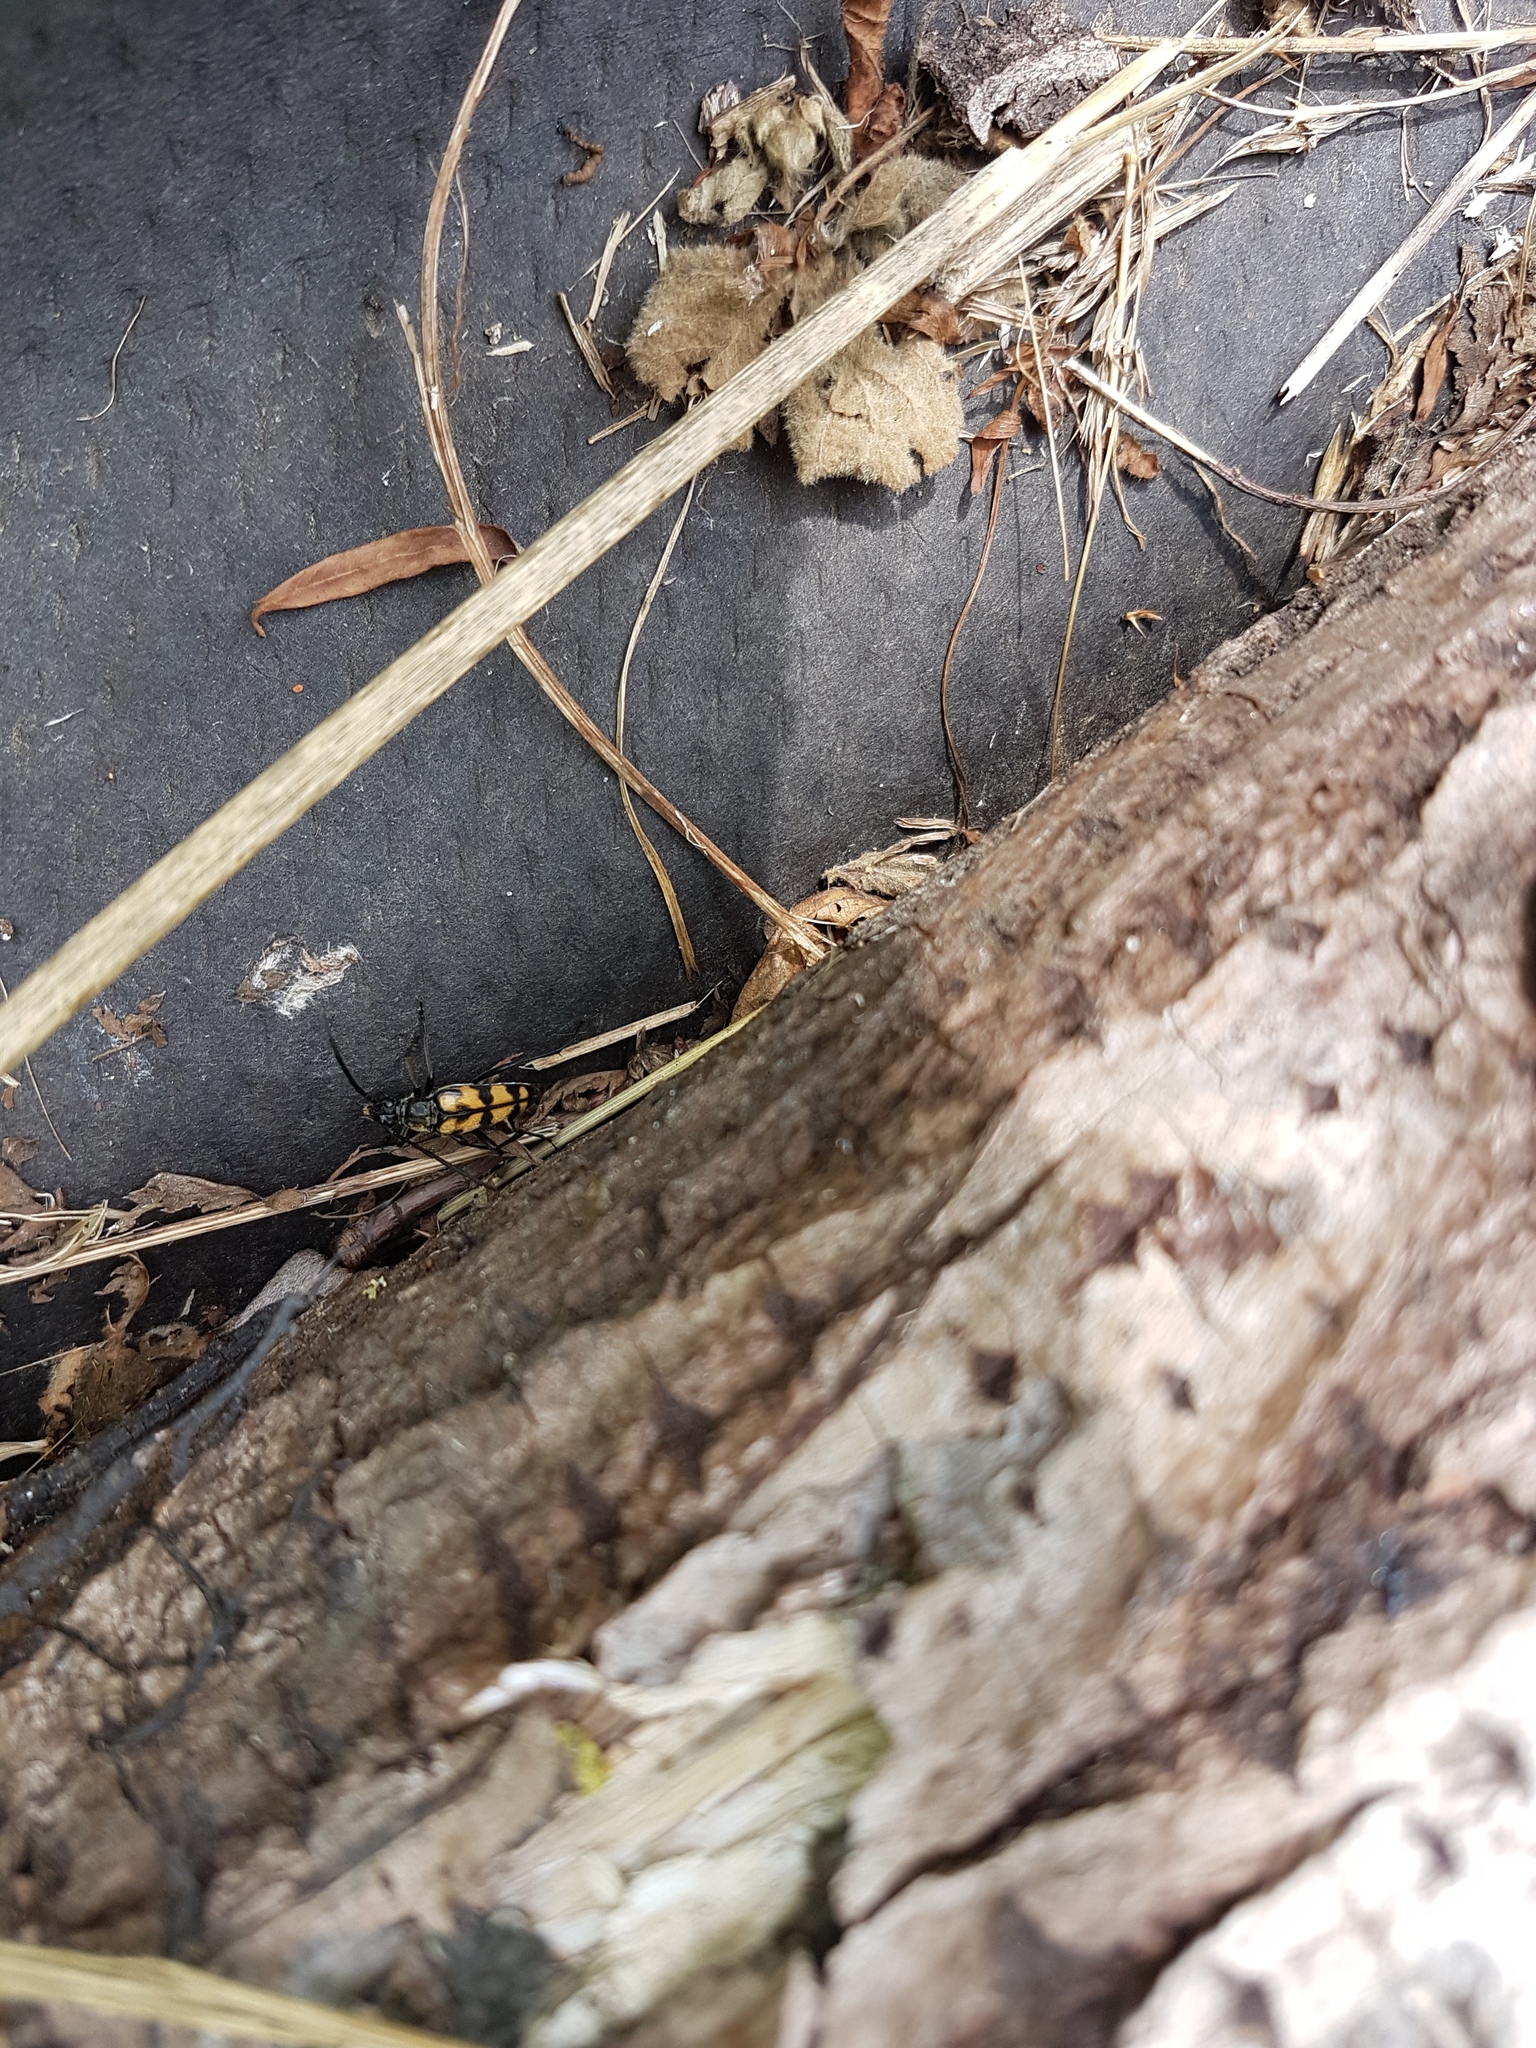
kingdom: Animalia
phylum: Arthropoda
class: Insecta
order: Coleoptera
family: Cerambycidae
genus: Leptura
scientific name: Leptura quadrifasciata
